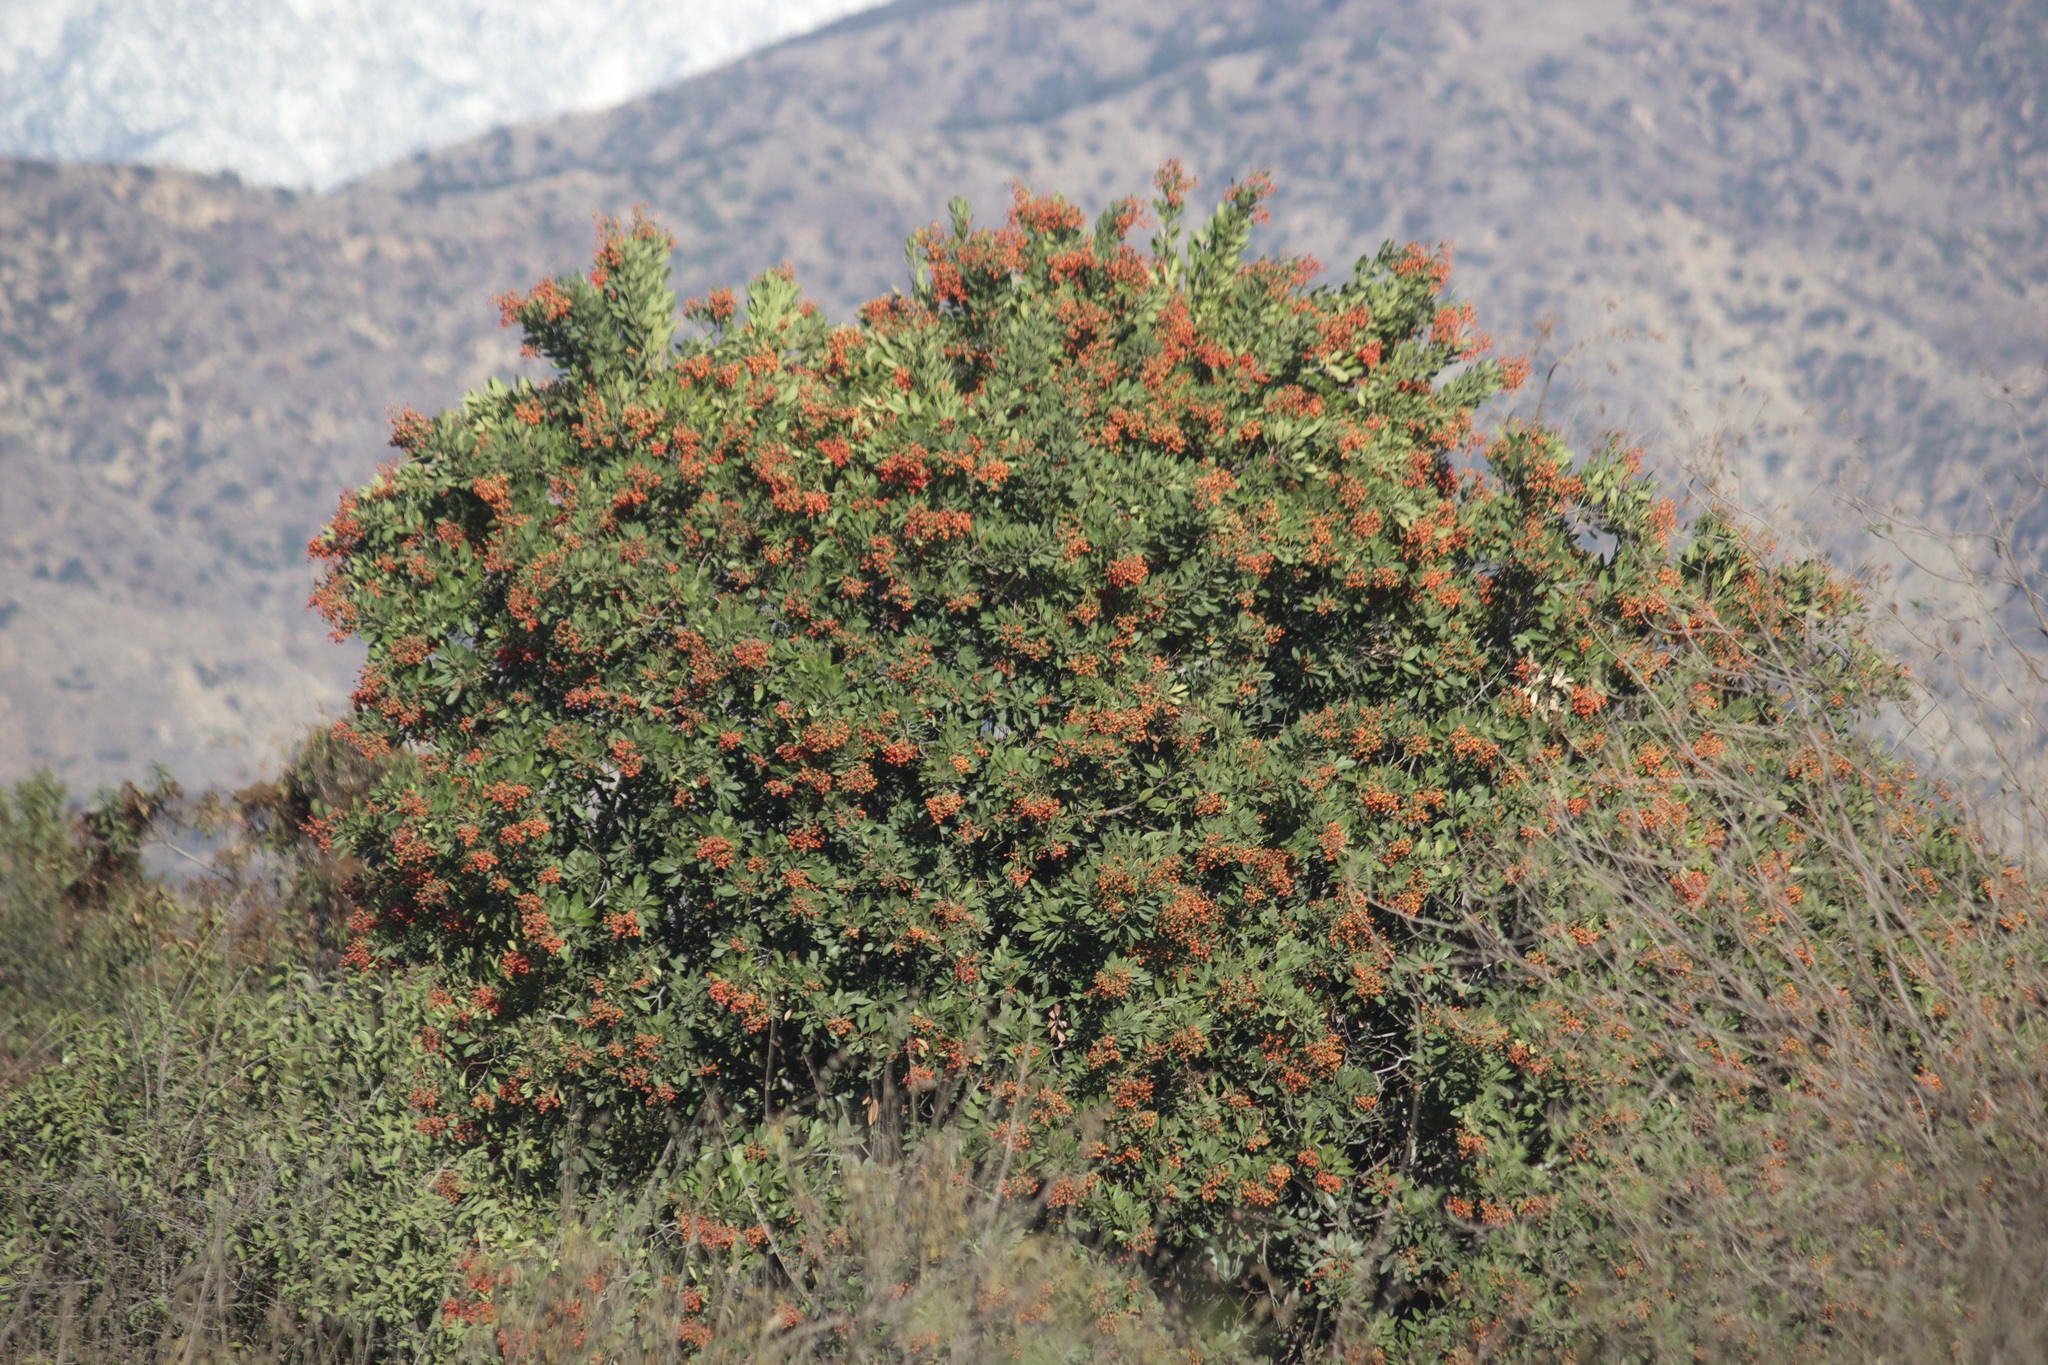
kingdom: Plantae
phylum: Tracheophyta
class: Magnoliopsida
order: Rosales
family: Rosaceae
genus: Heteromeles
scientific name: Heteromeles arbutifolia
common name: California-holly
